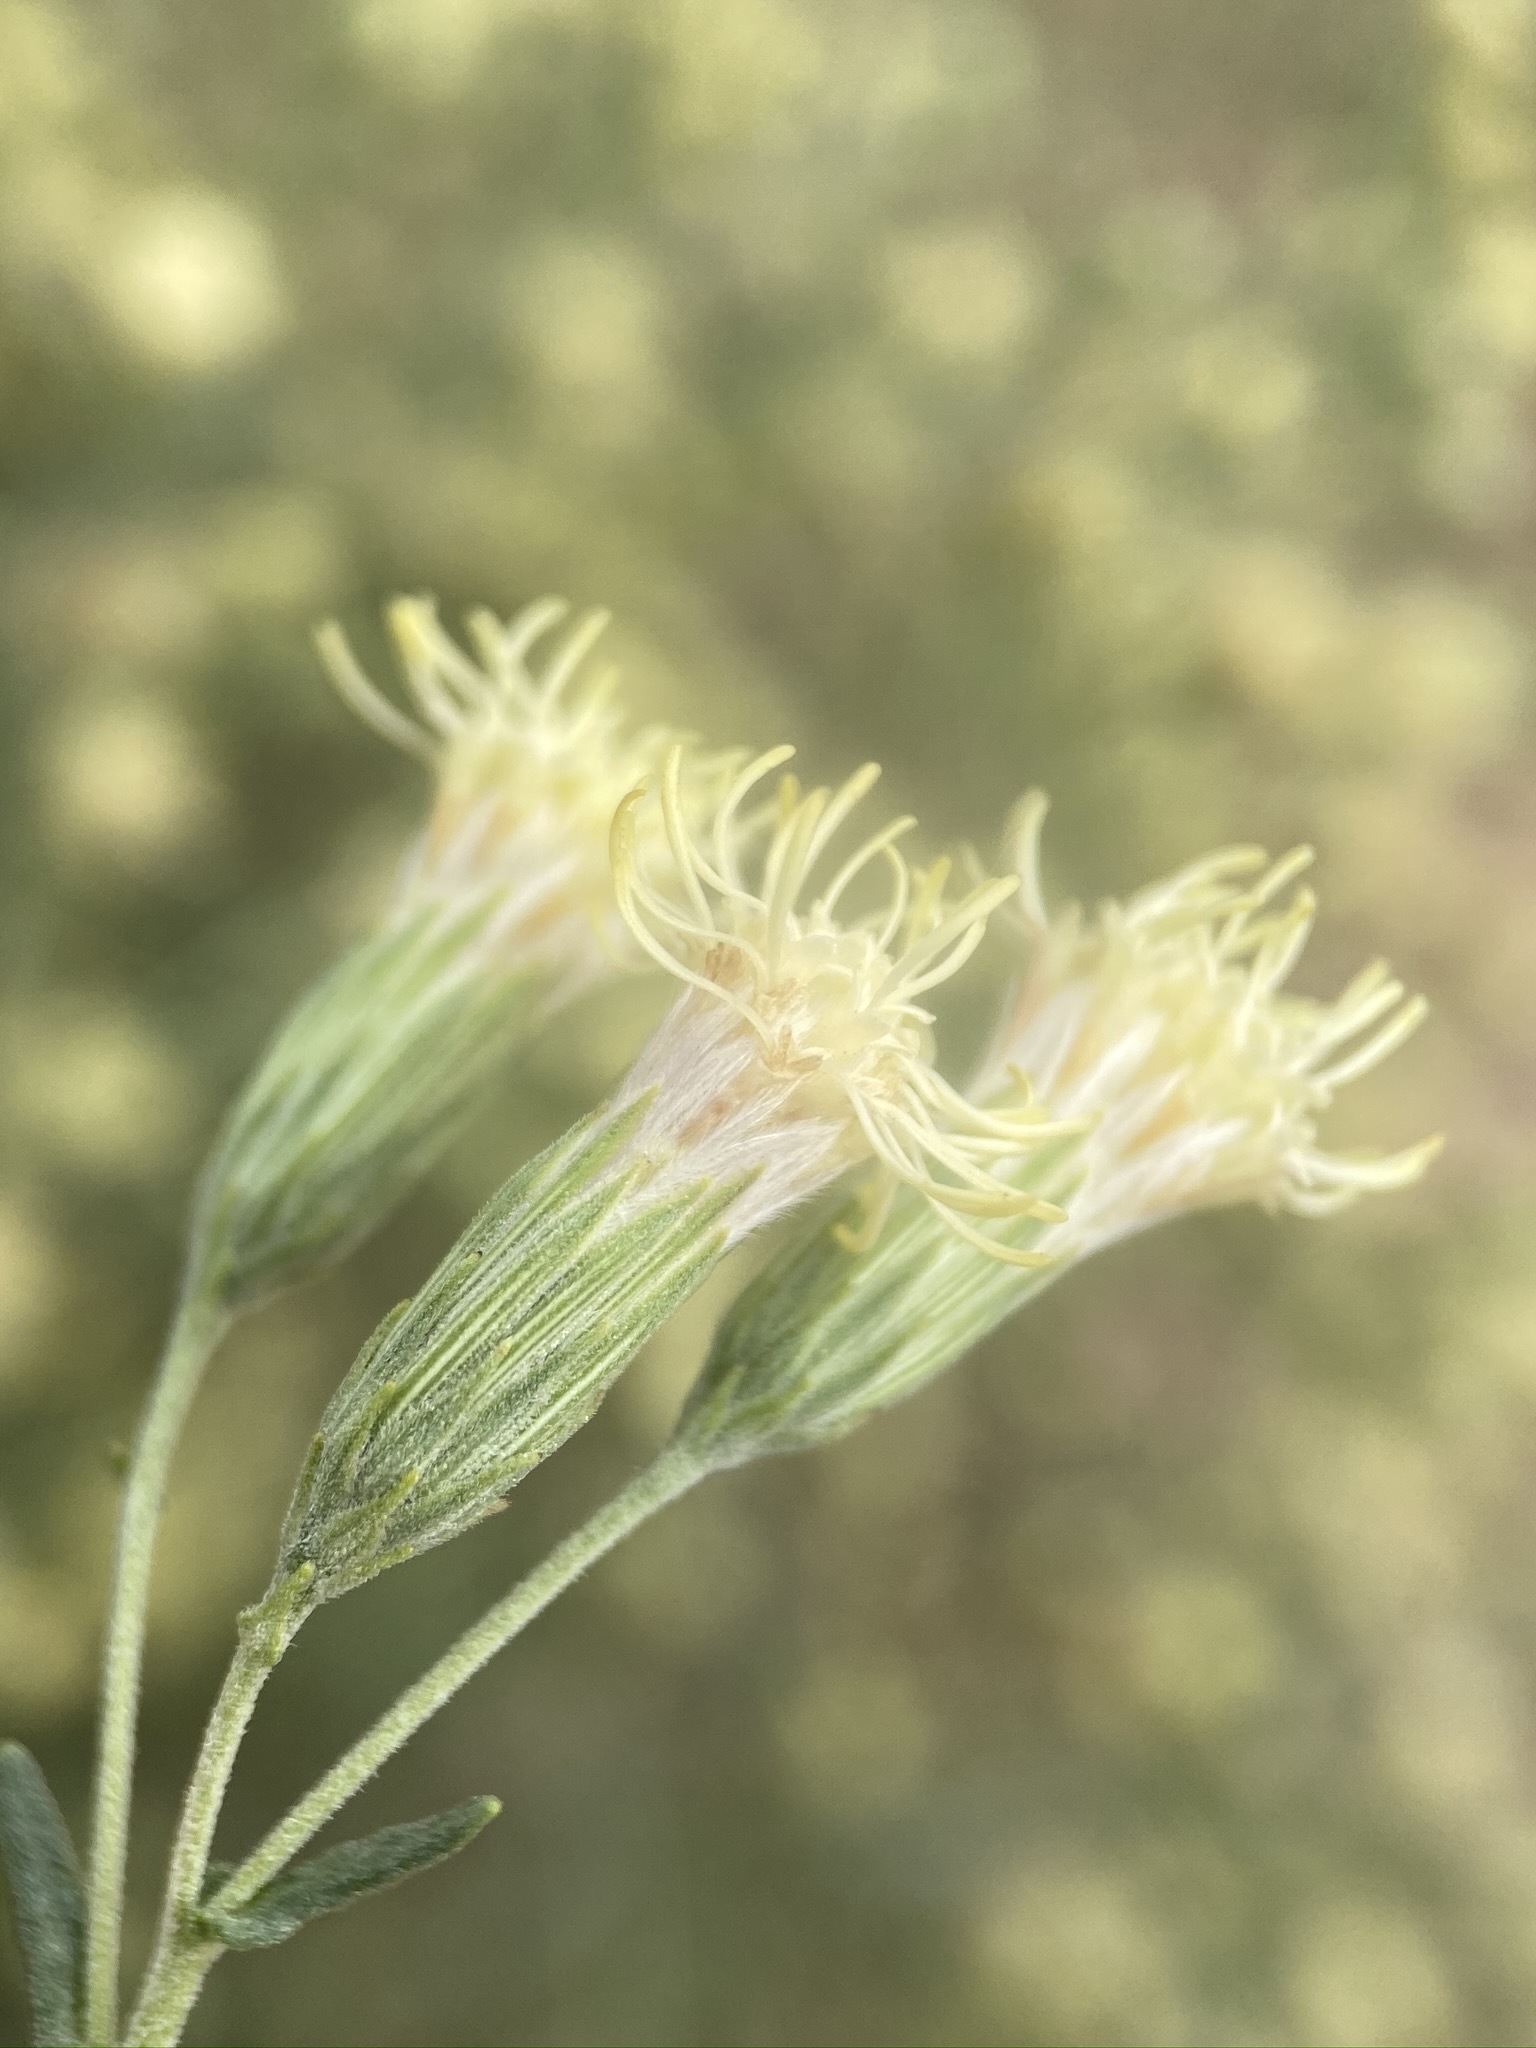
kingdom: Plantae
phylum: Tracheophyta
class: Magnoliopsida
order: Asterales
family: Asteraceae
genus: Brickellia
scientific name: Brickellia eupatorioides
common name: False boneset
